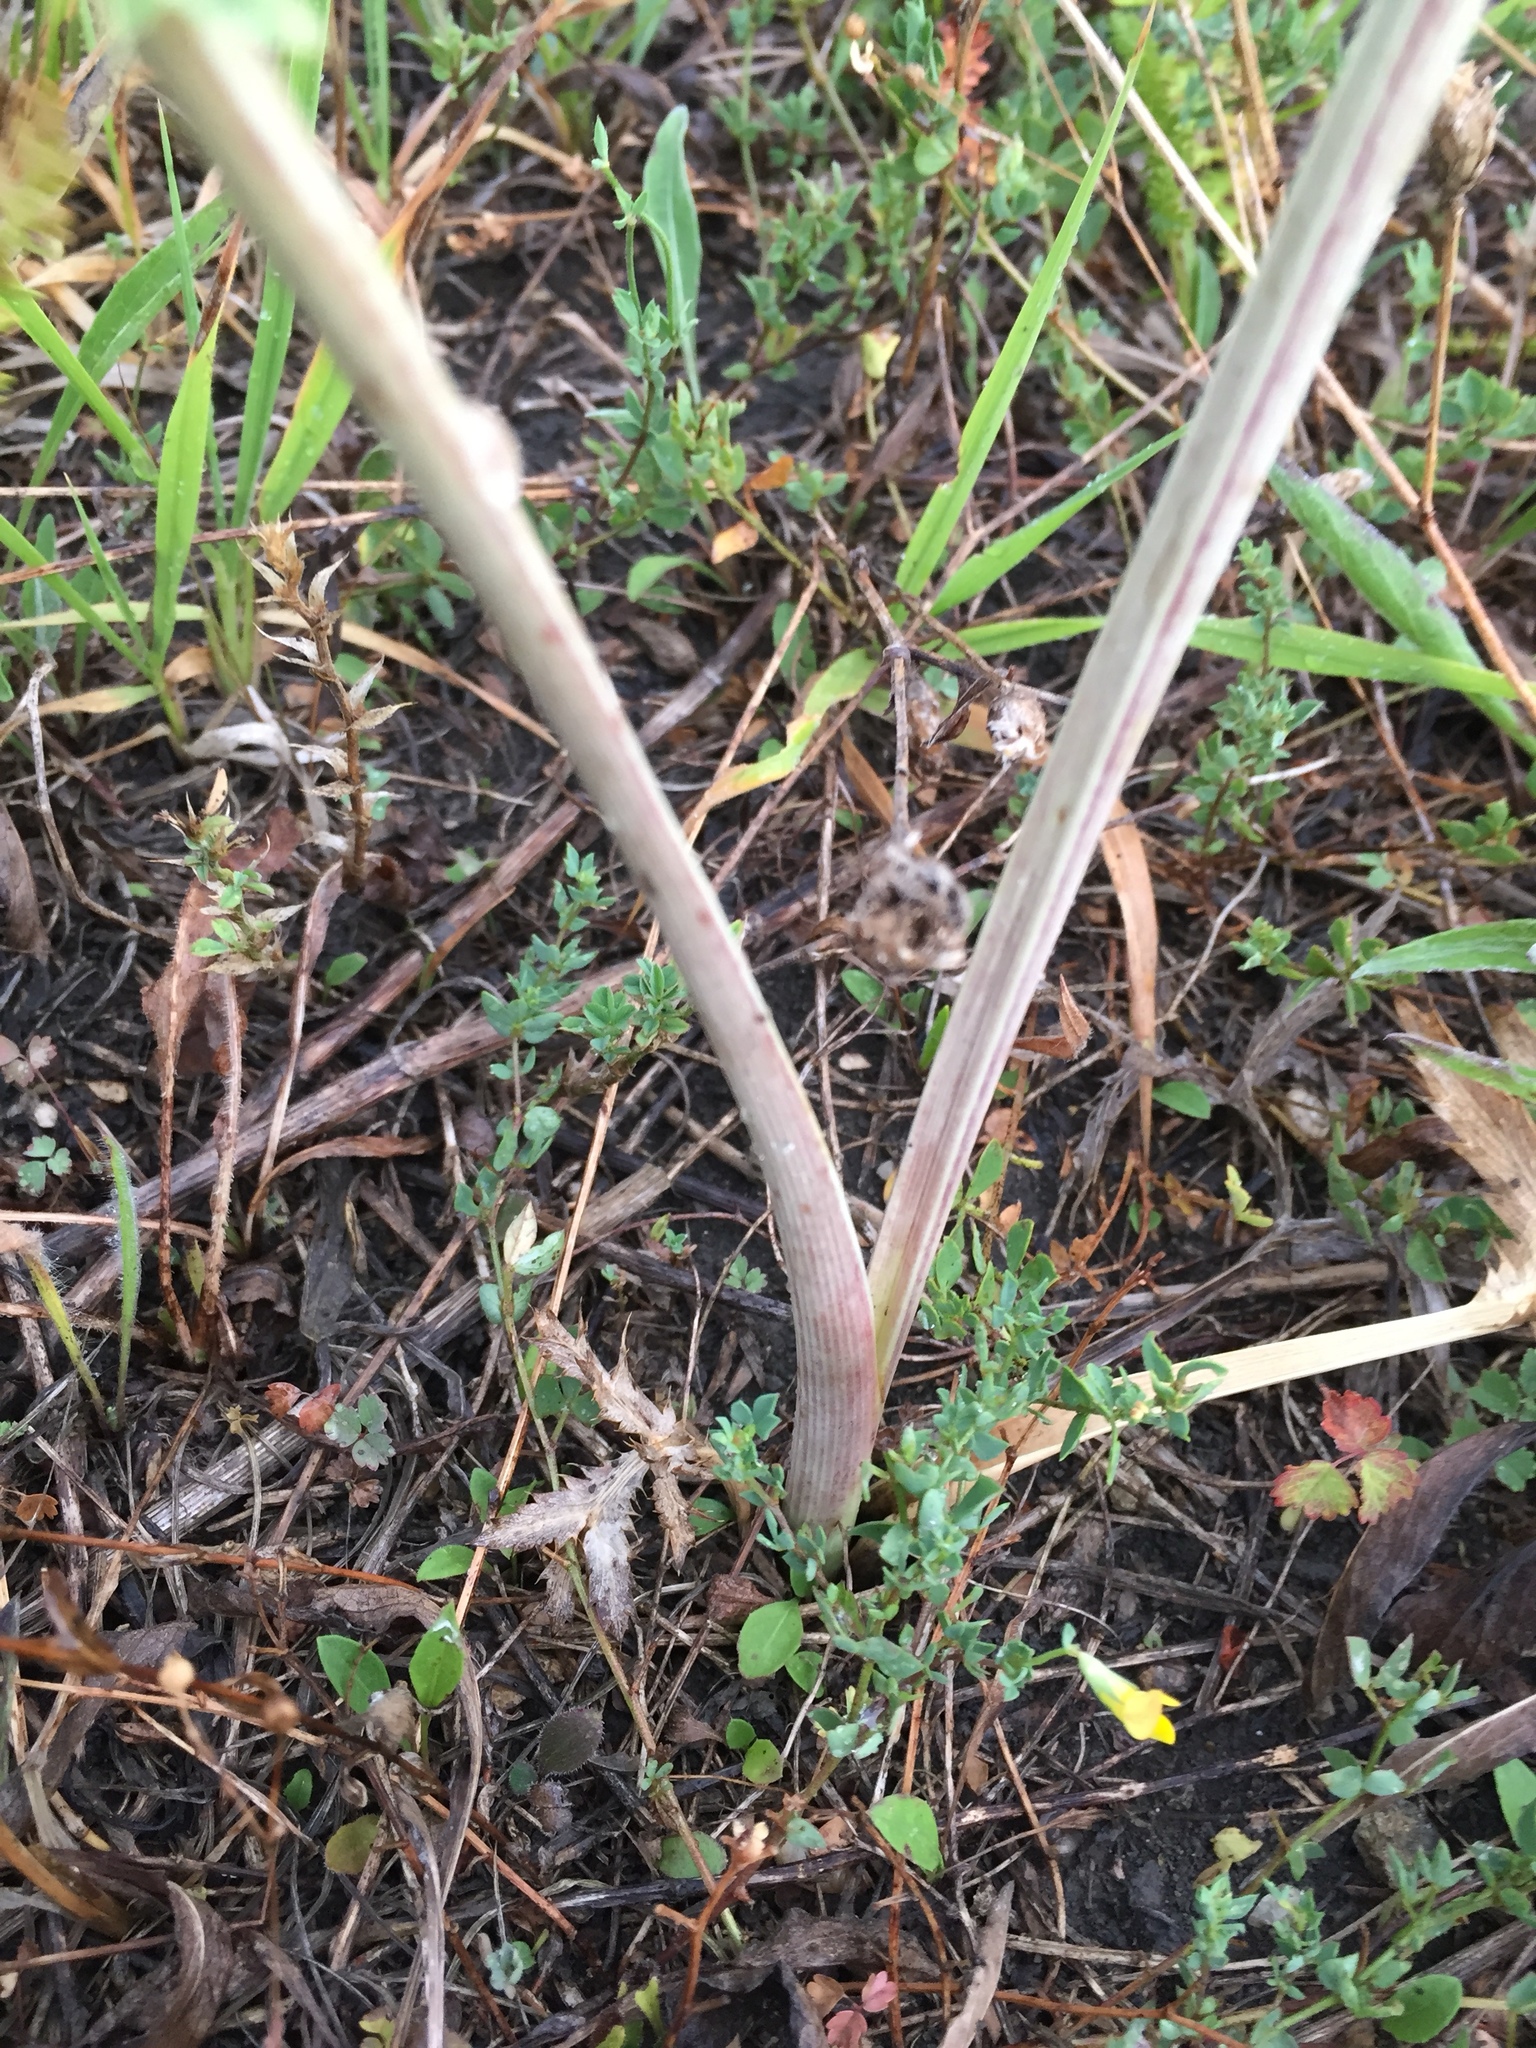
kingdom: Plantae
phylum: Tracheophyta
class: Magnoliopsida
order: Apiales
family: Apiaceae
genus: Eryngium
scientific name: Eryngium campestre
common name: Field eryngo
